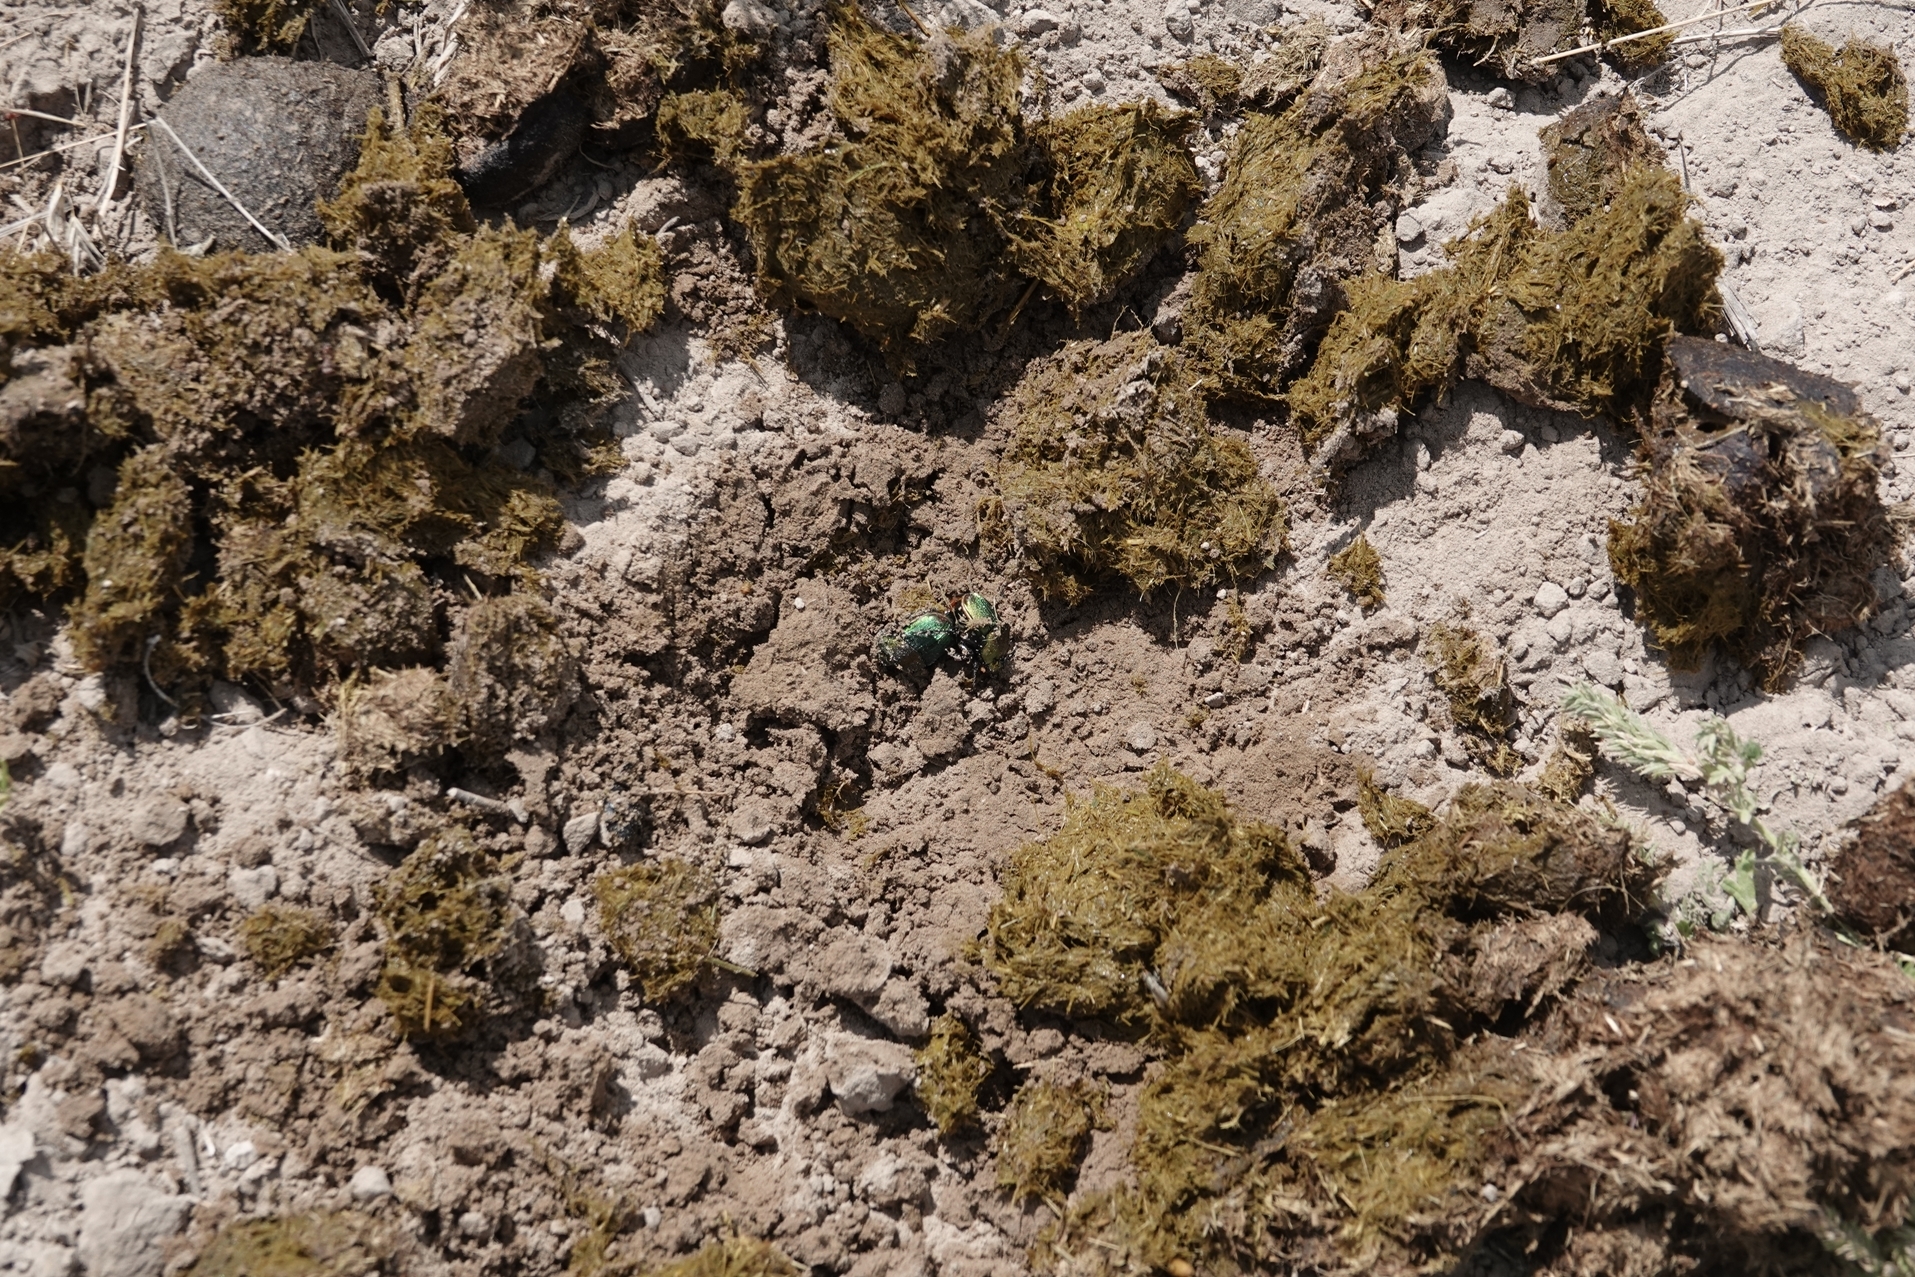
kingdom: Animalia
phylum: Arthropoda
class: Insecta
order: Coleoptera
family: Scarabaeidae
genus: Phanaeus
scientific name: Phanaeus vindex
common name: Rainbow scarab
